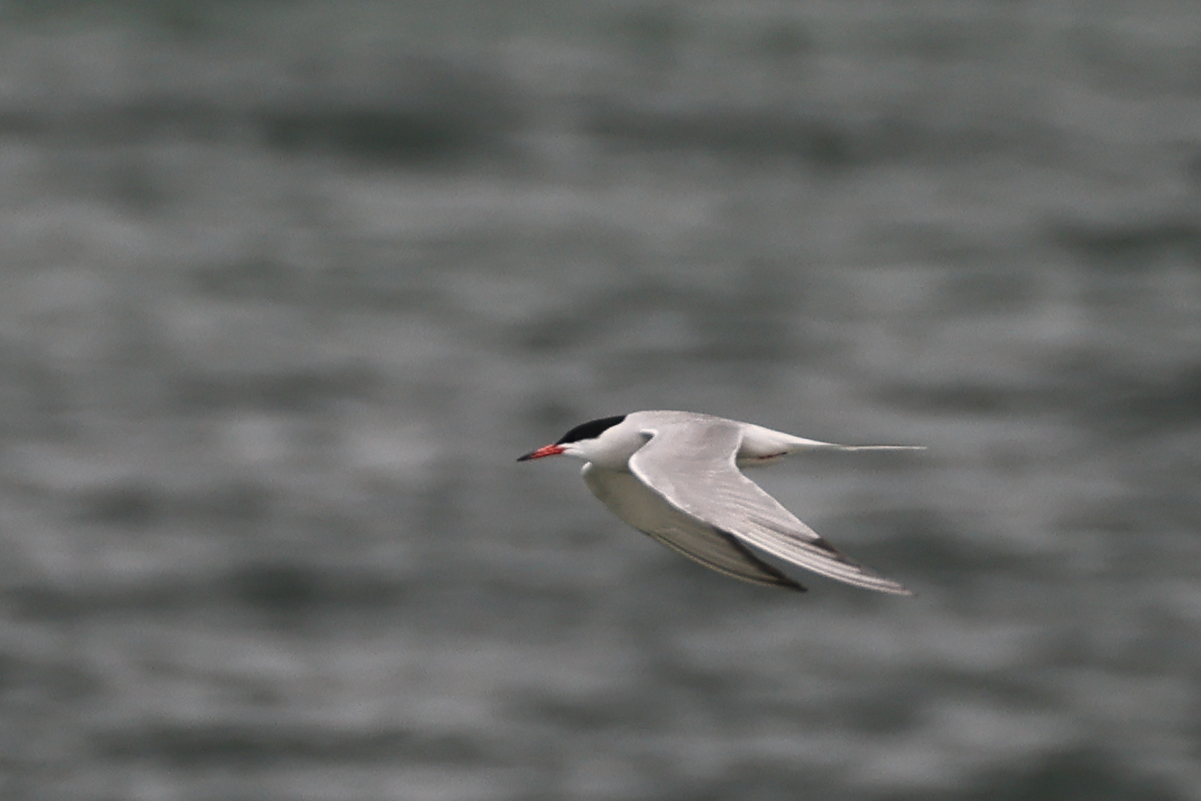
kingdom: Animalia
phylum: Chordata
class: Aves
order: Charadriiformes
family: Laridae
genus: Sterna
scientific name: Sterna hirundo
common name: Common tern
